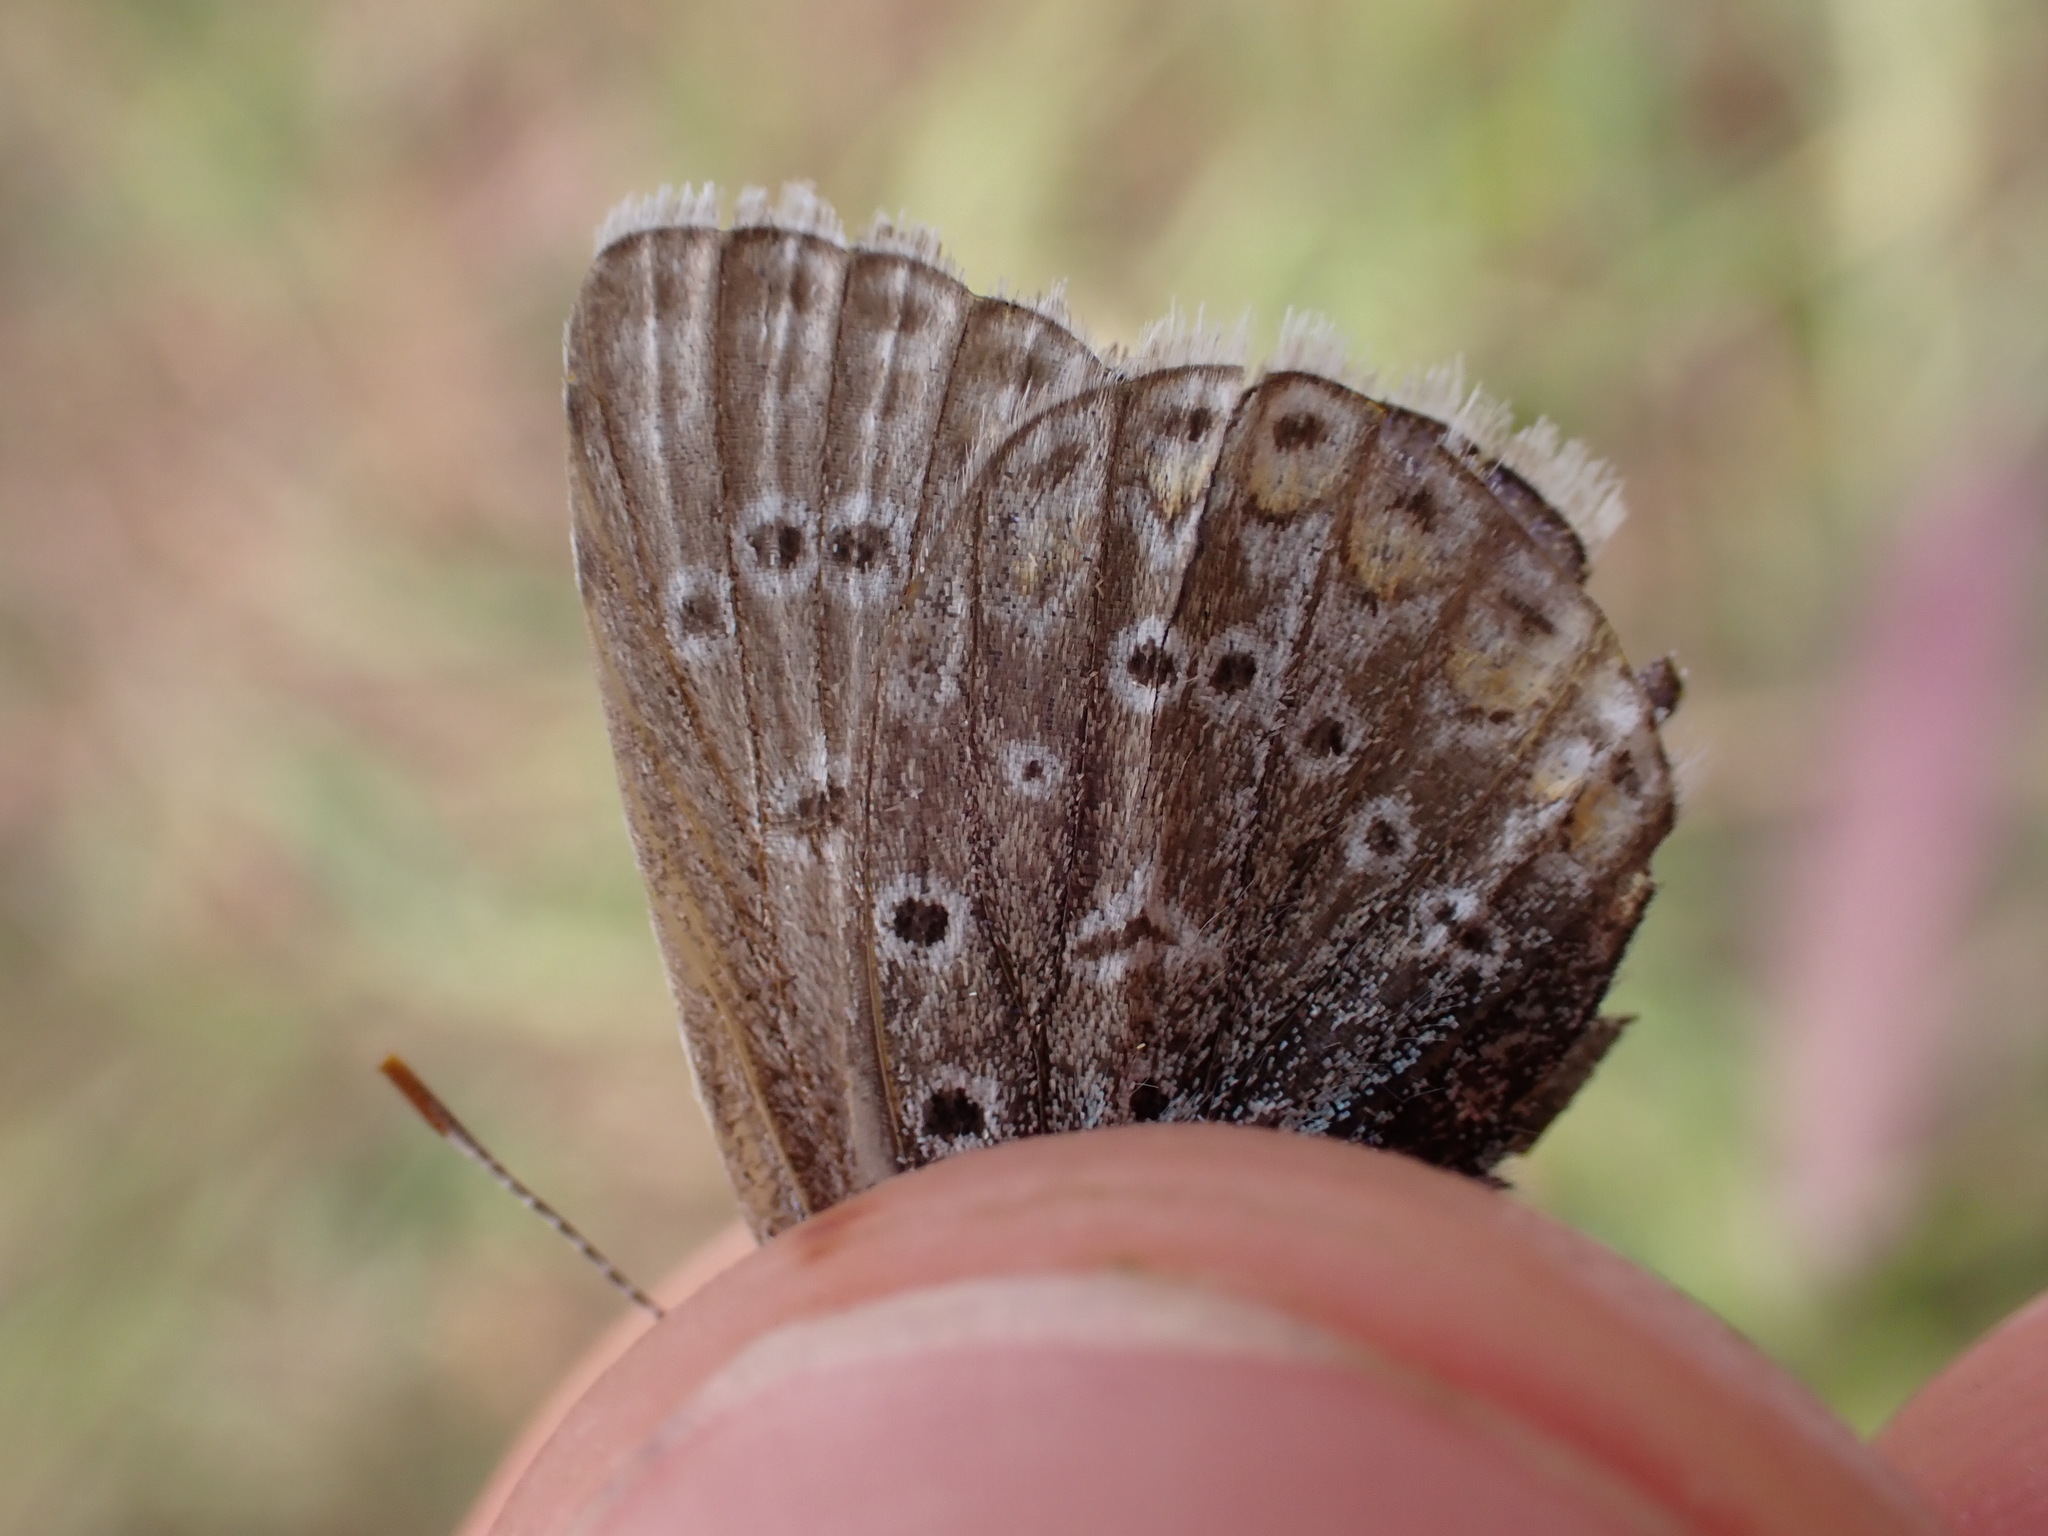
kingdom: Animalia
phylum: Arthropoda
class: Insecta
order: Lepidoptera
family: Lycaenidae
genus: Polyommatus
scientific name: Polyommatus icarus
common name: Common blue
